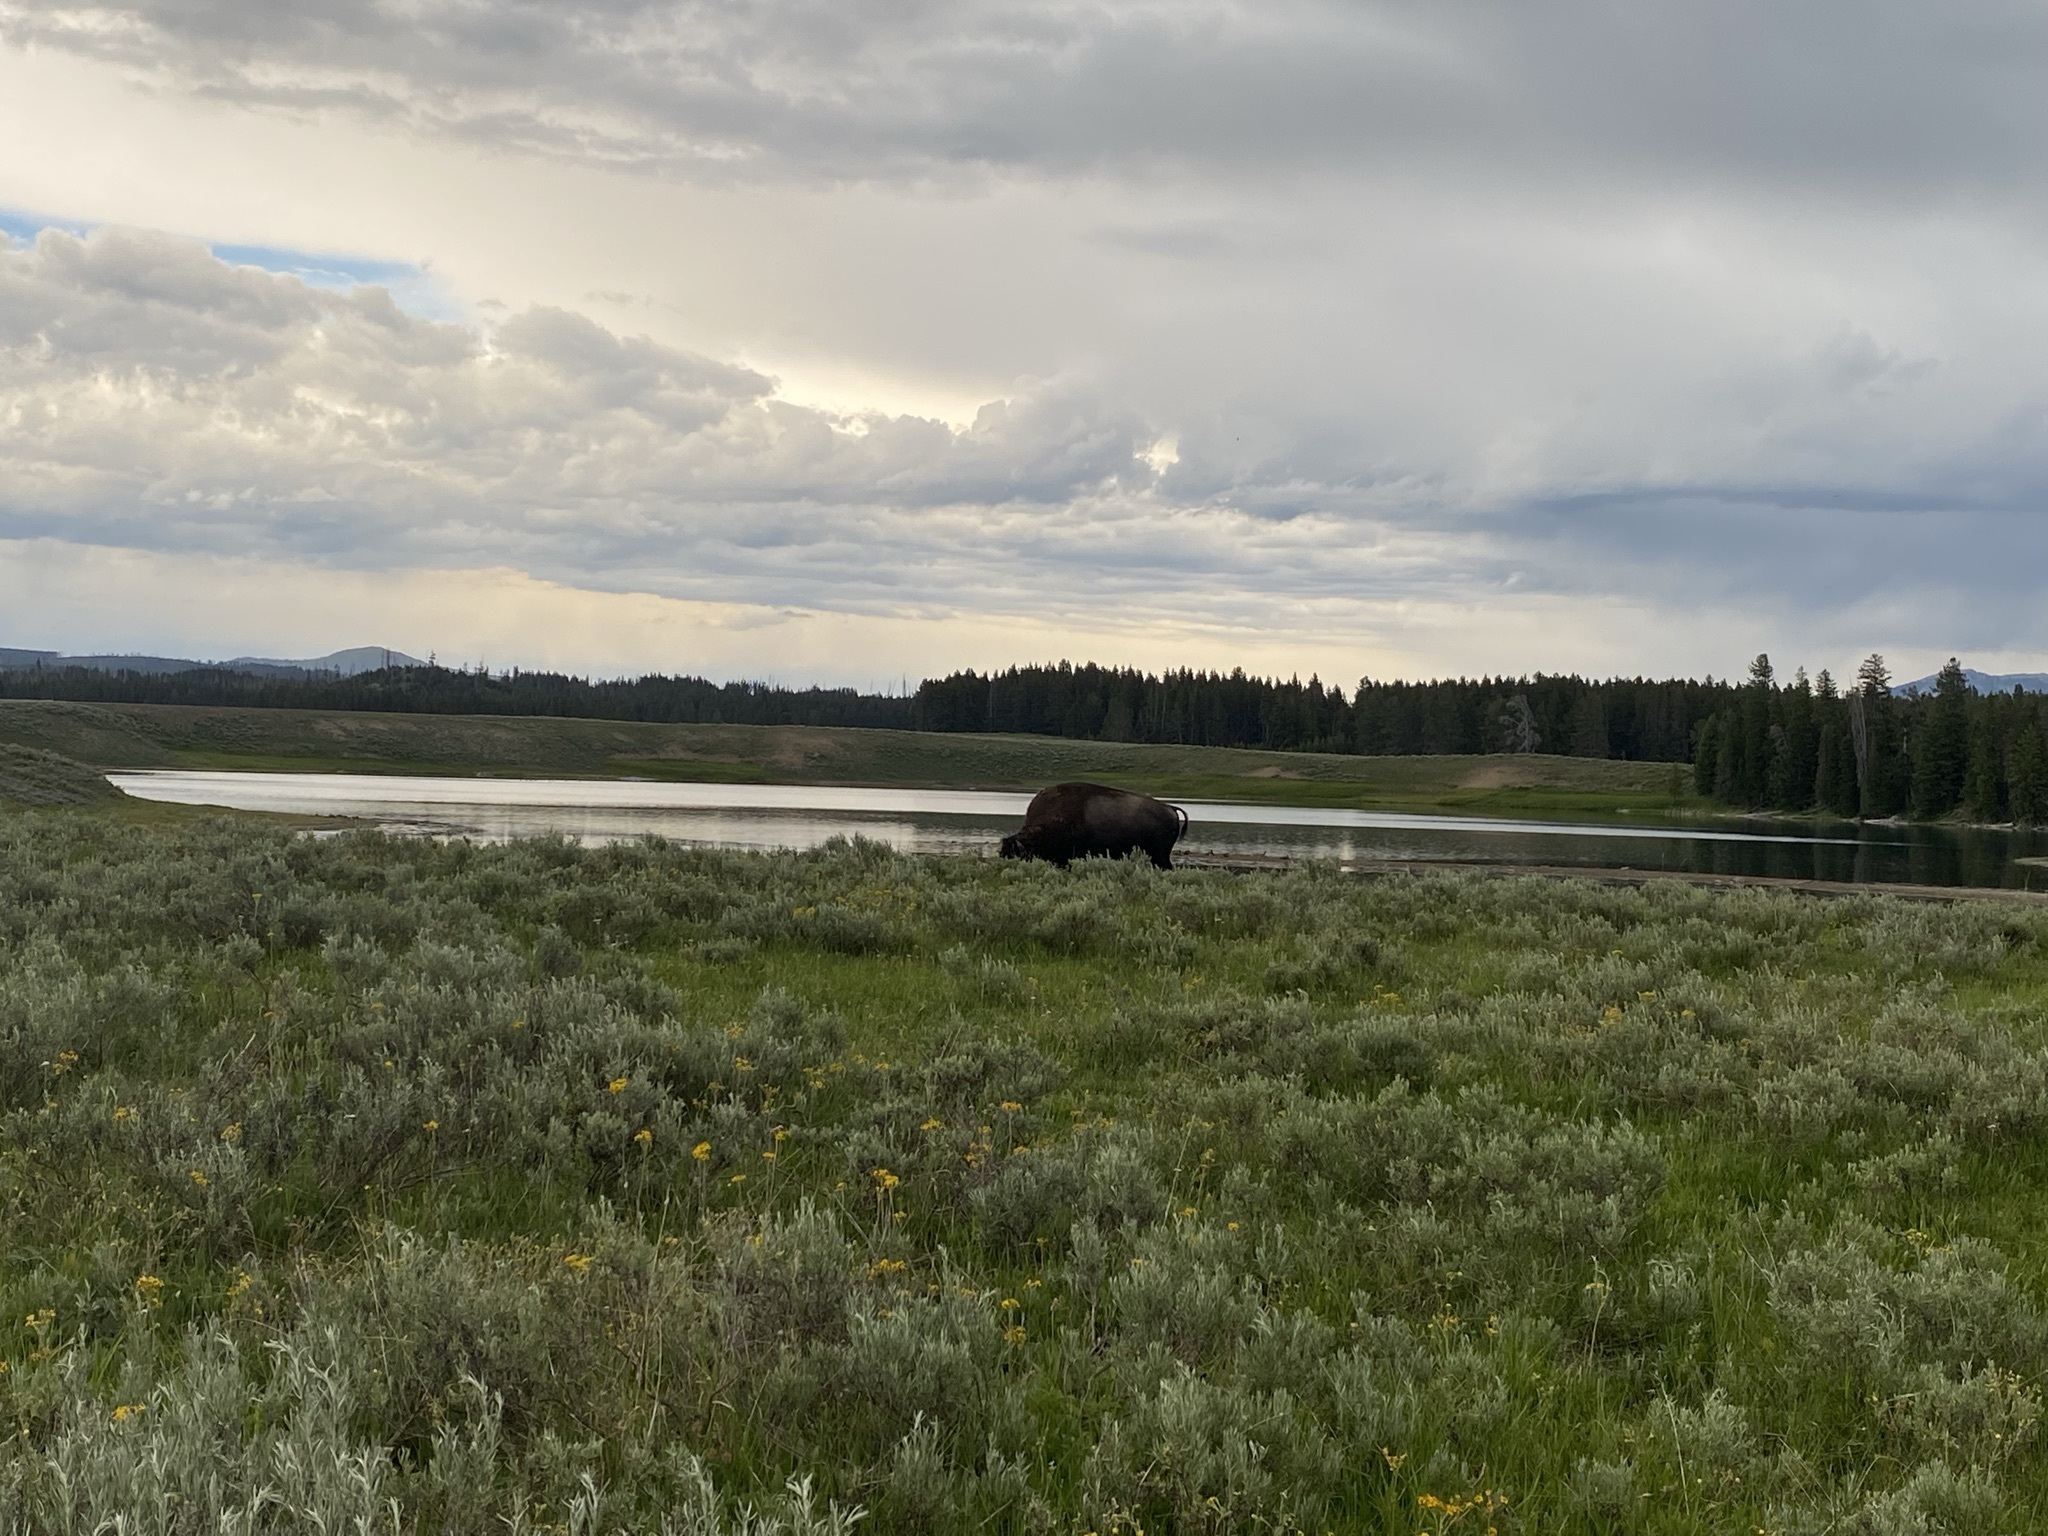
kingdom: Animalia
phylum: Chordata
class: Mammalia
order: Artiodactyla
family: Bovidae
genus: Bison
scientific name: Bison bison
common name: American bison
